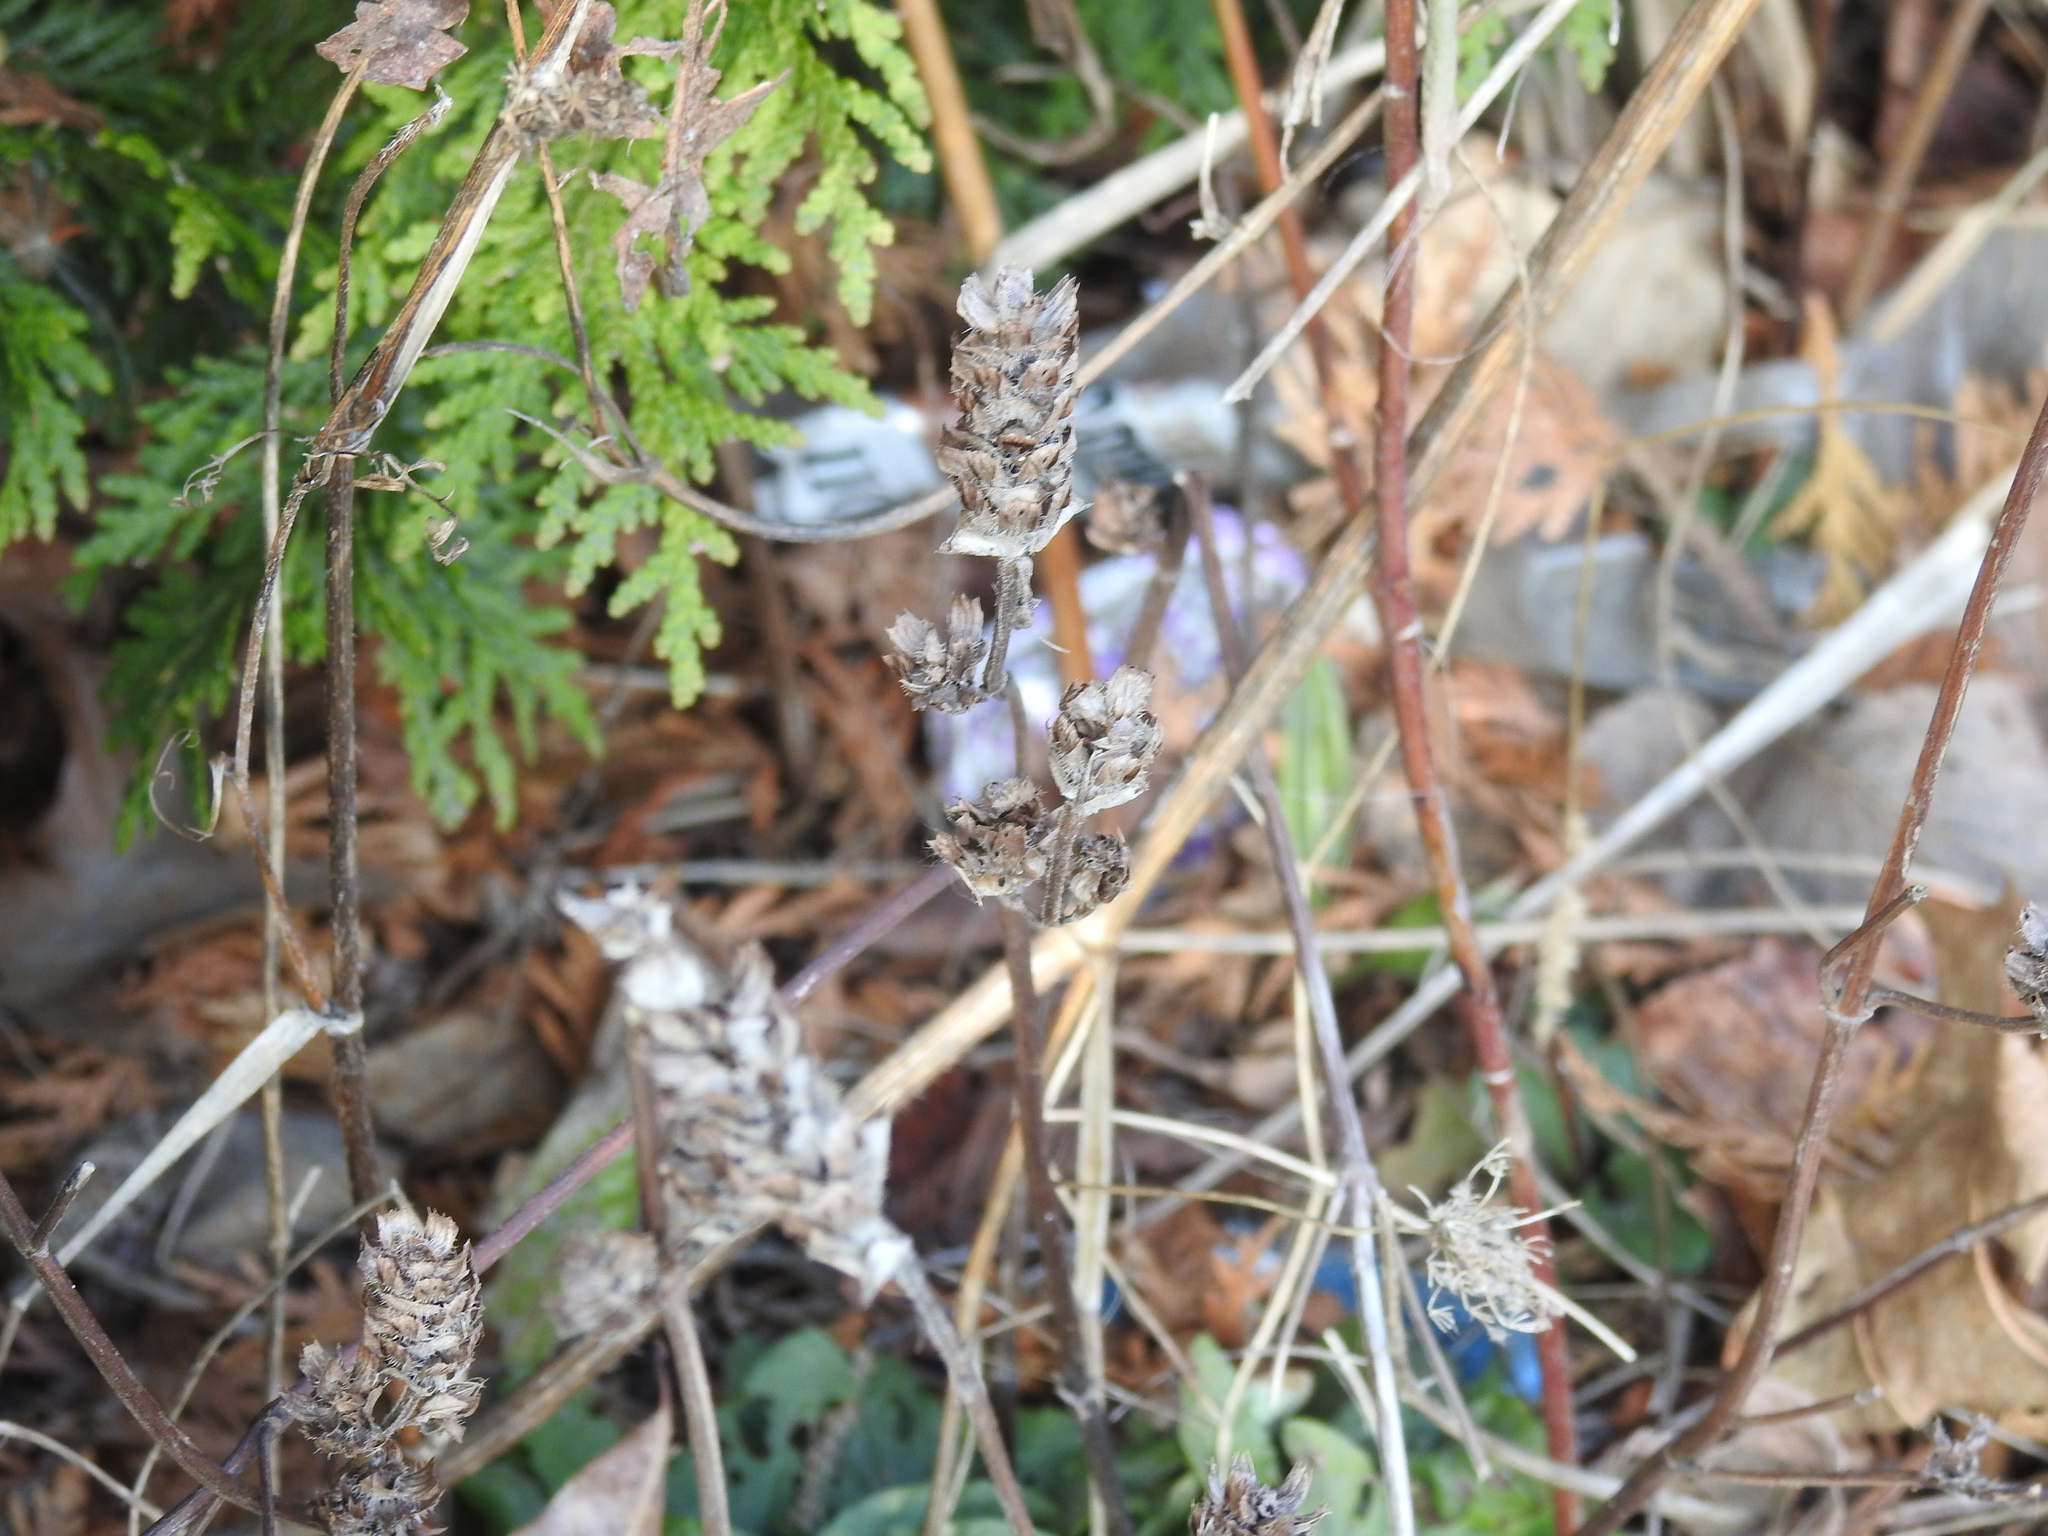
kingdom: Plantae
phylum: Tracheophyta
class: Magnoliopsida
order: Lamiales
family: Lamiaceae
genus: Prunella
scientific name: Prunella vulgaris
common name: Heal-all
